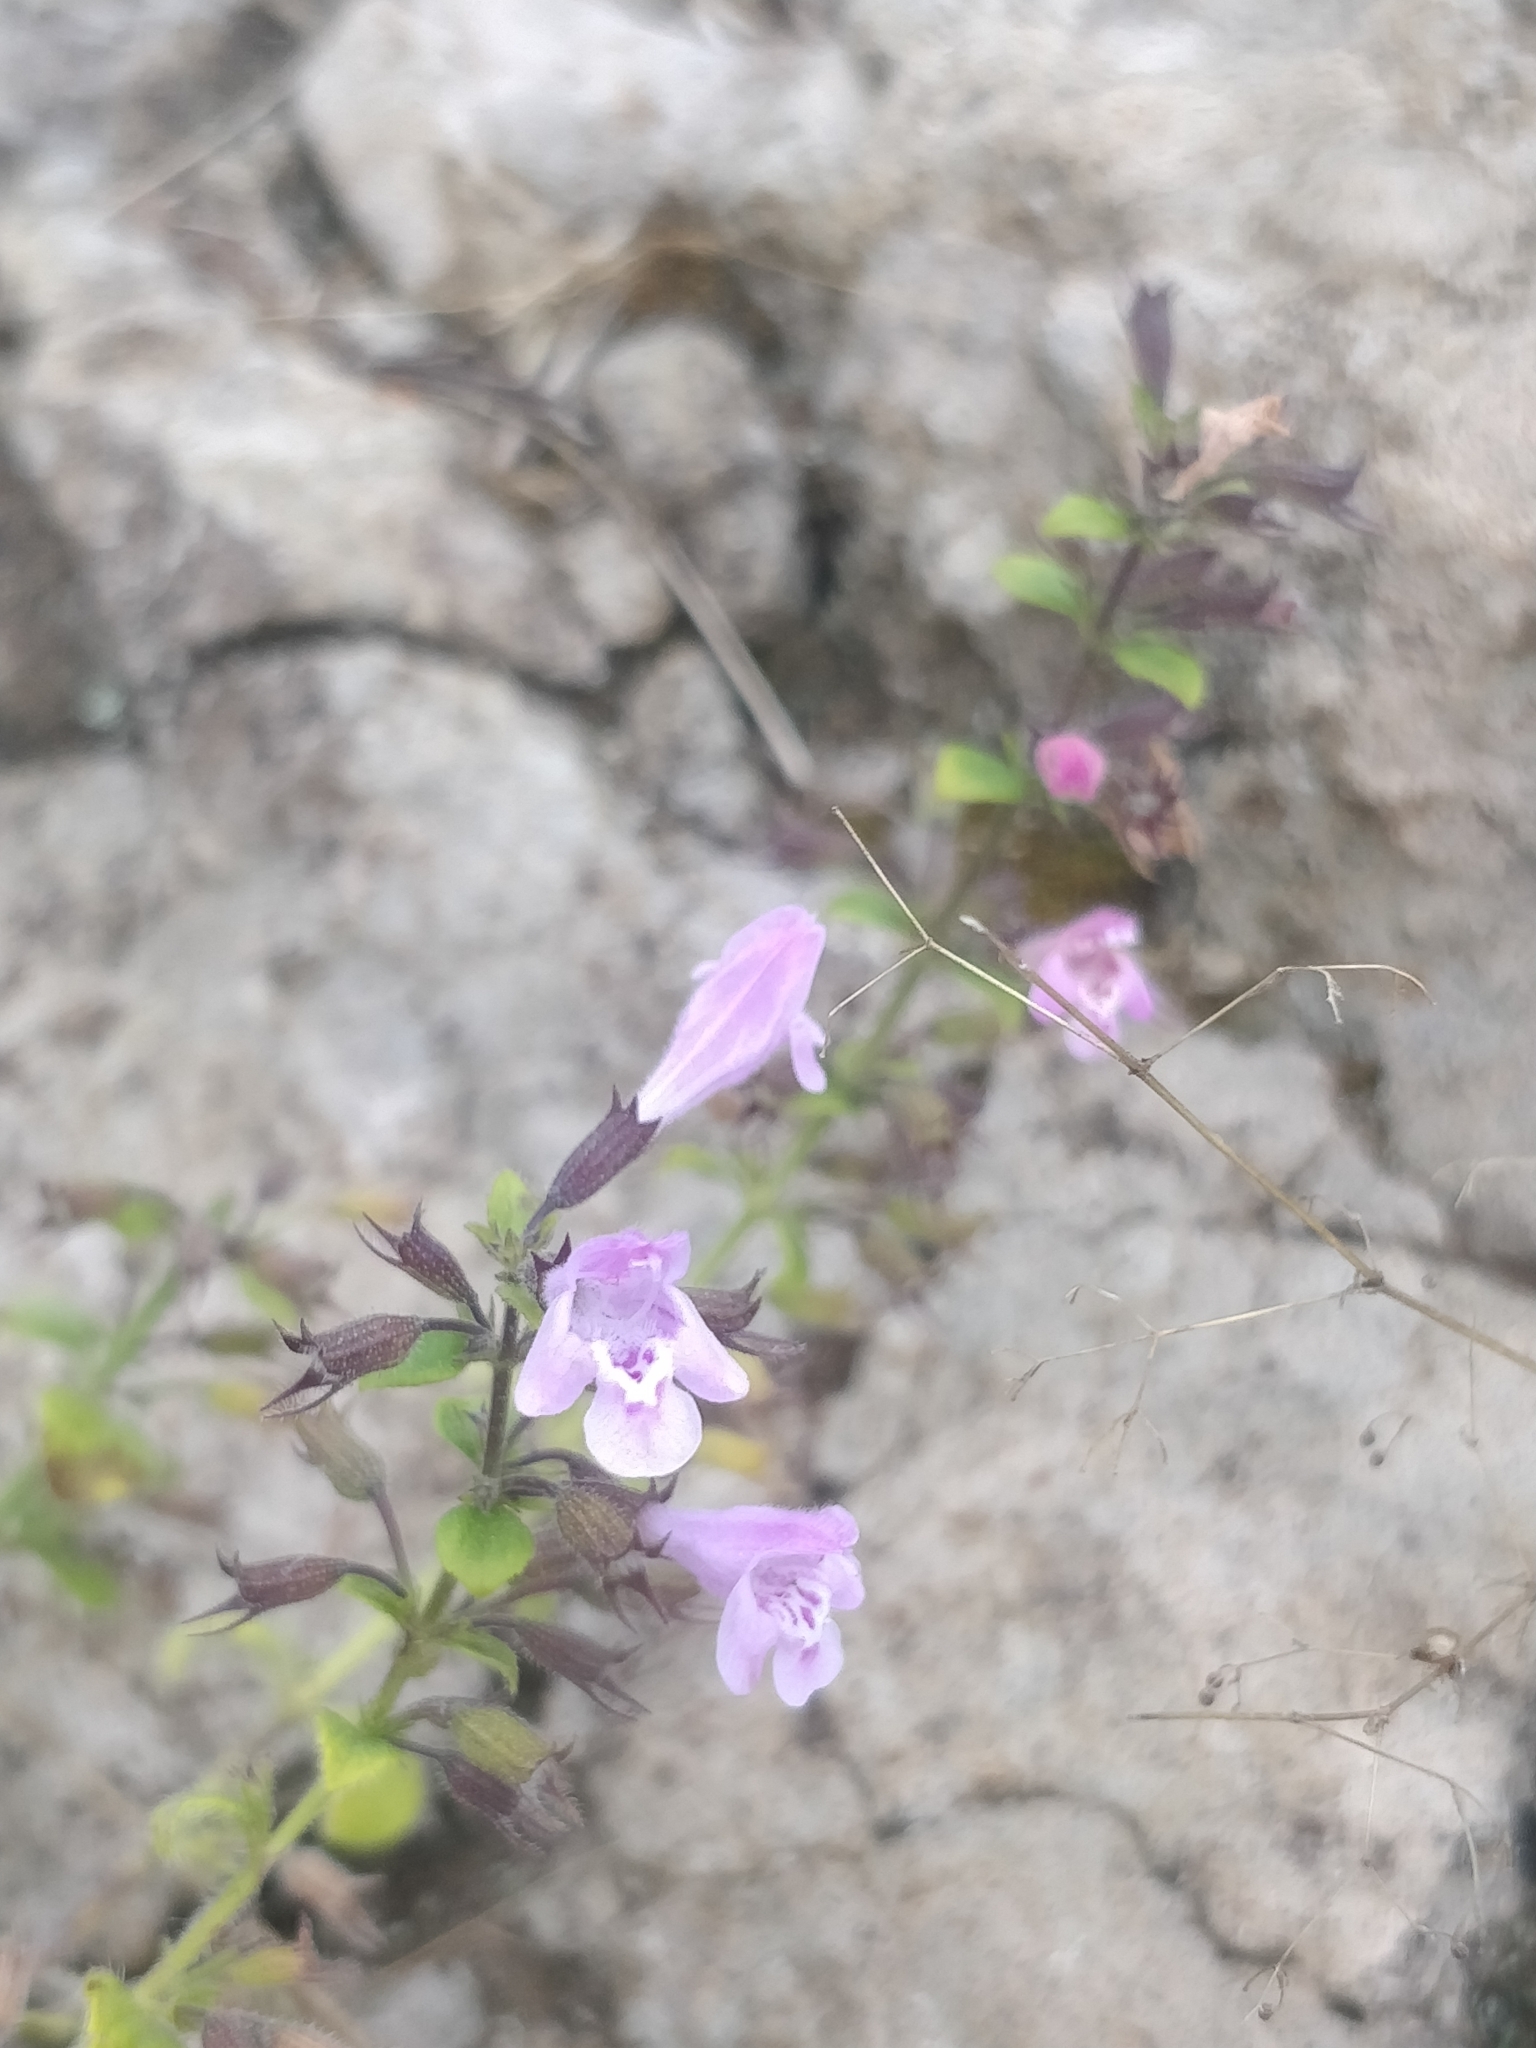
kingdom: Plantae
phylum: Tracheophyta
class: Magnoliopsida
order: Lamiales
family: Lamiaceae
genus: Clinopodium
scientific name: Clinopodium menthifolium
